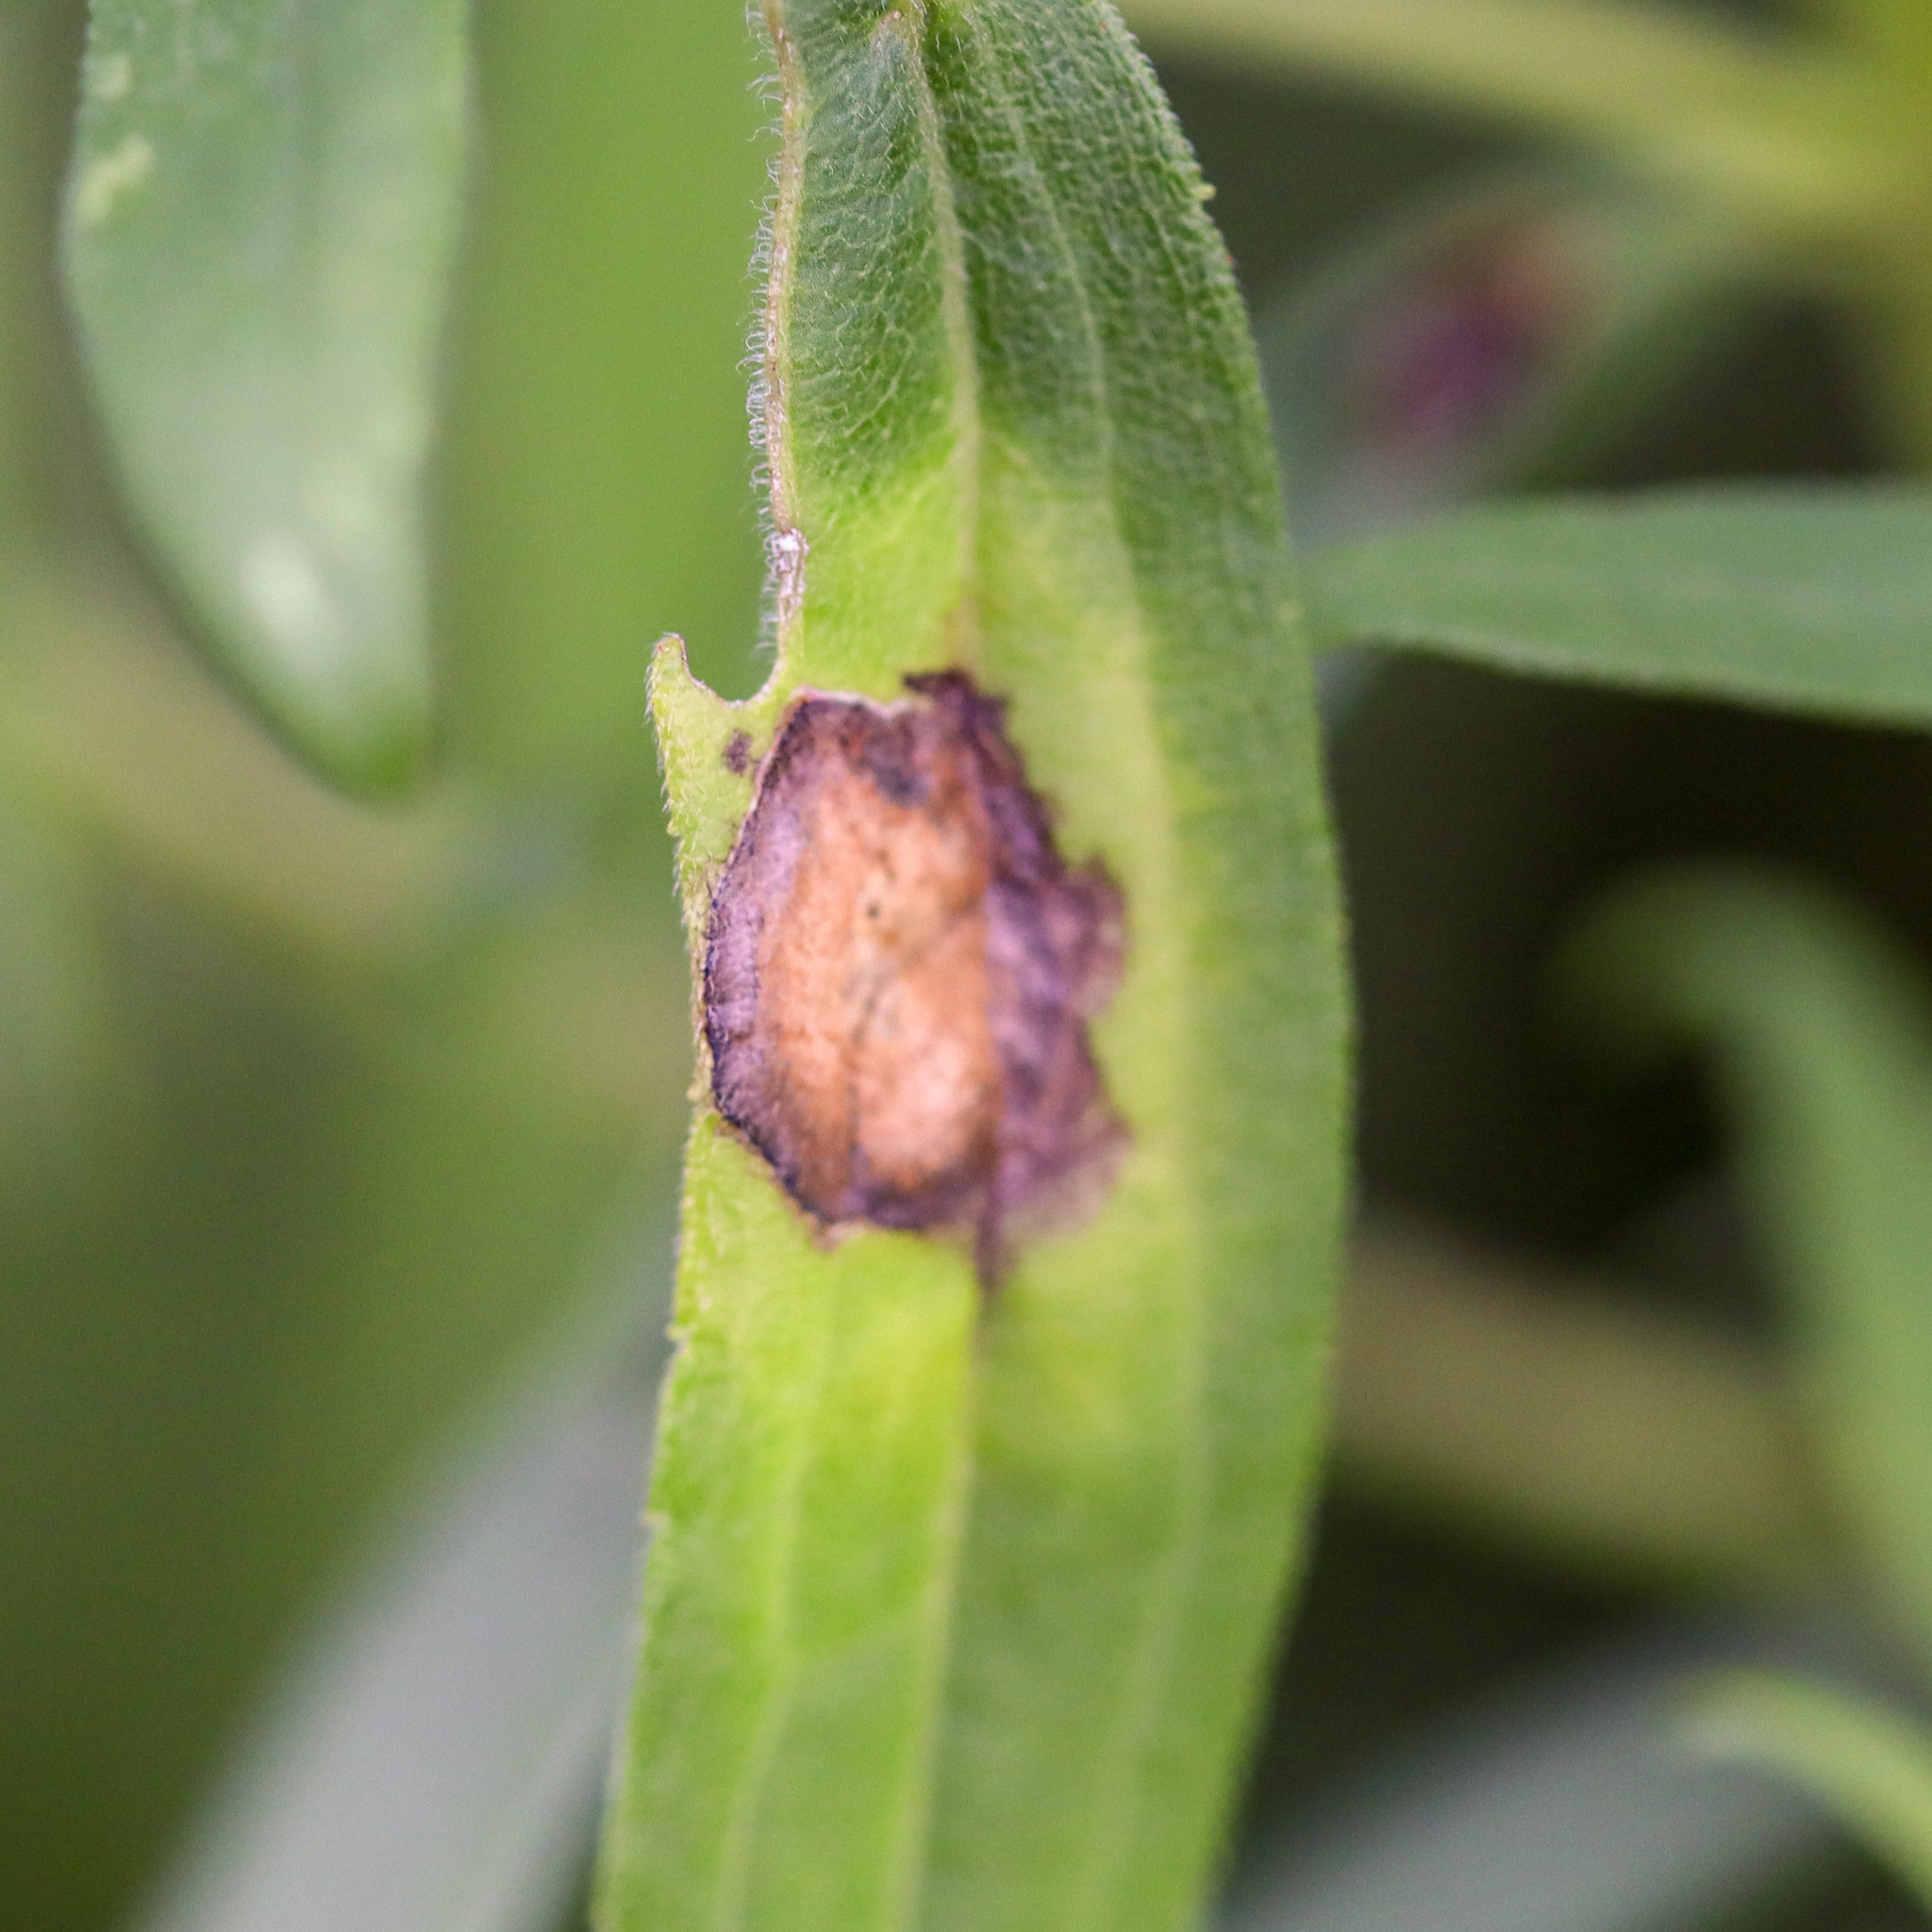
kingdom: Animalia
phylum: Arthropoda
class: Insecta
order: Diptera
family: Cecidomyiidae
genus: Asteromyia
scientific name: Asteromyia carbonifera
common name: Carbonifera goldenrod gall midge
